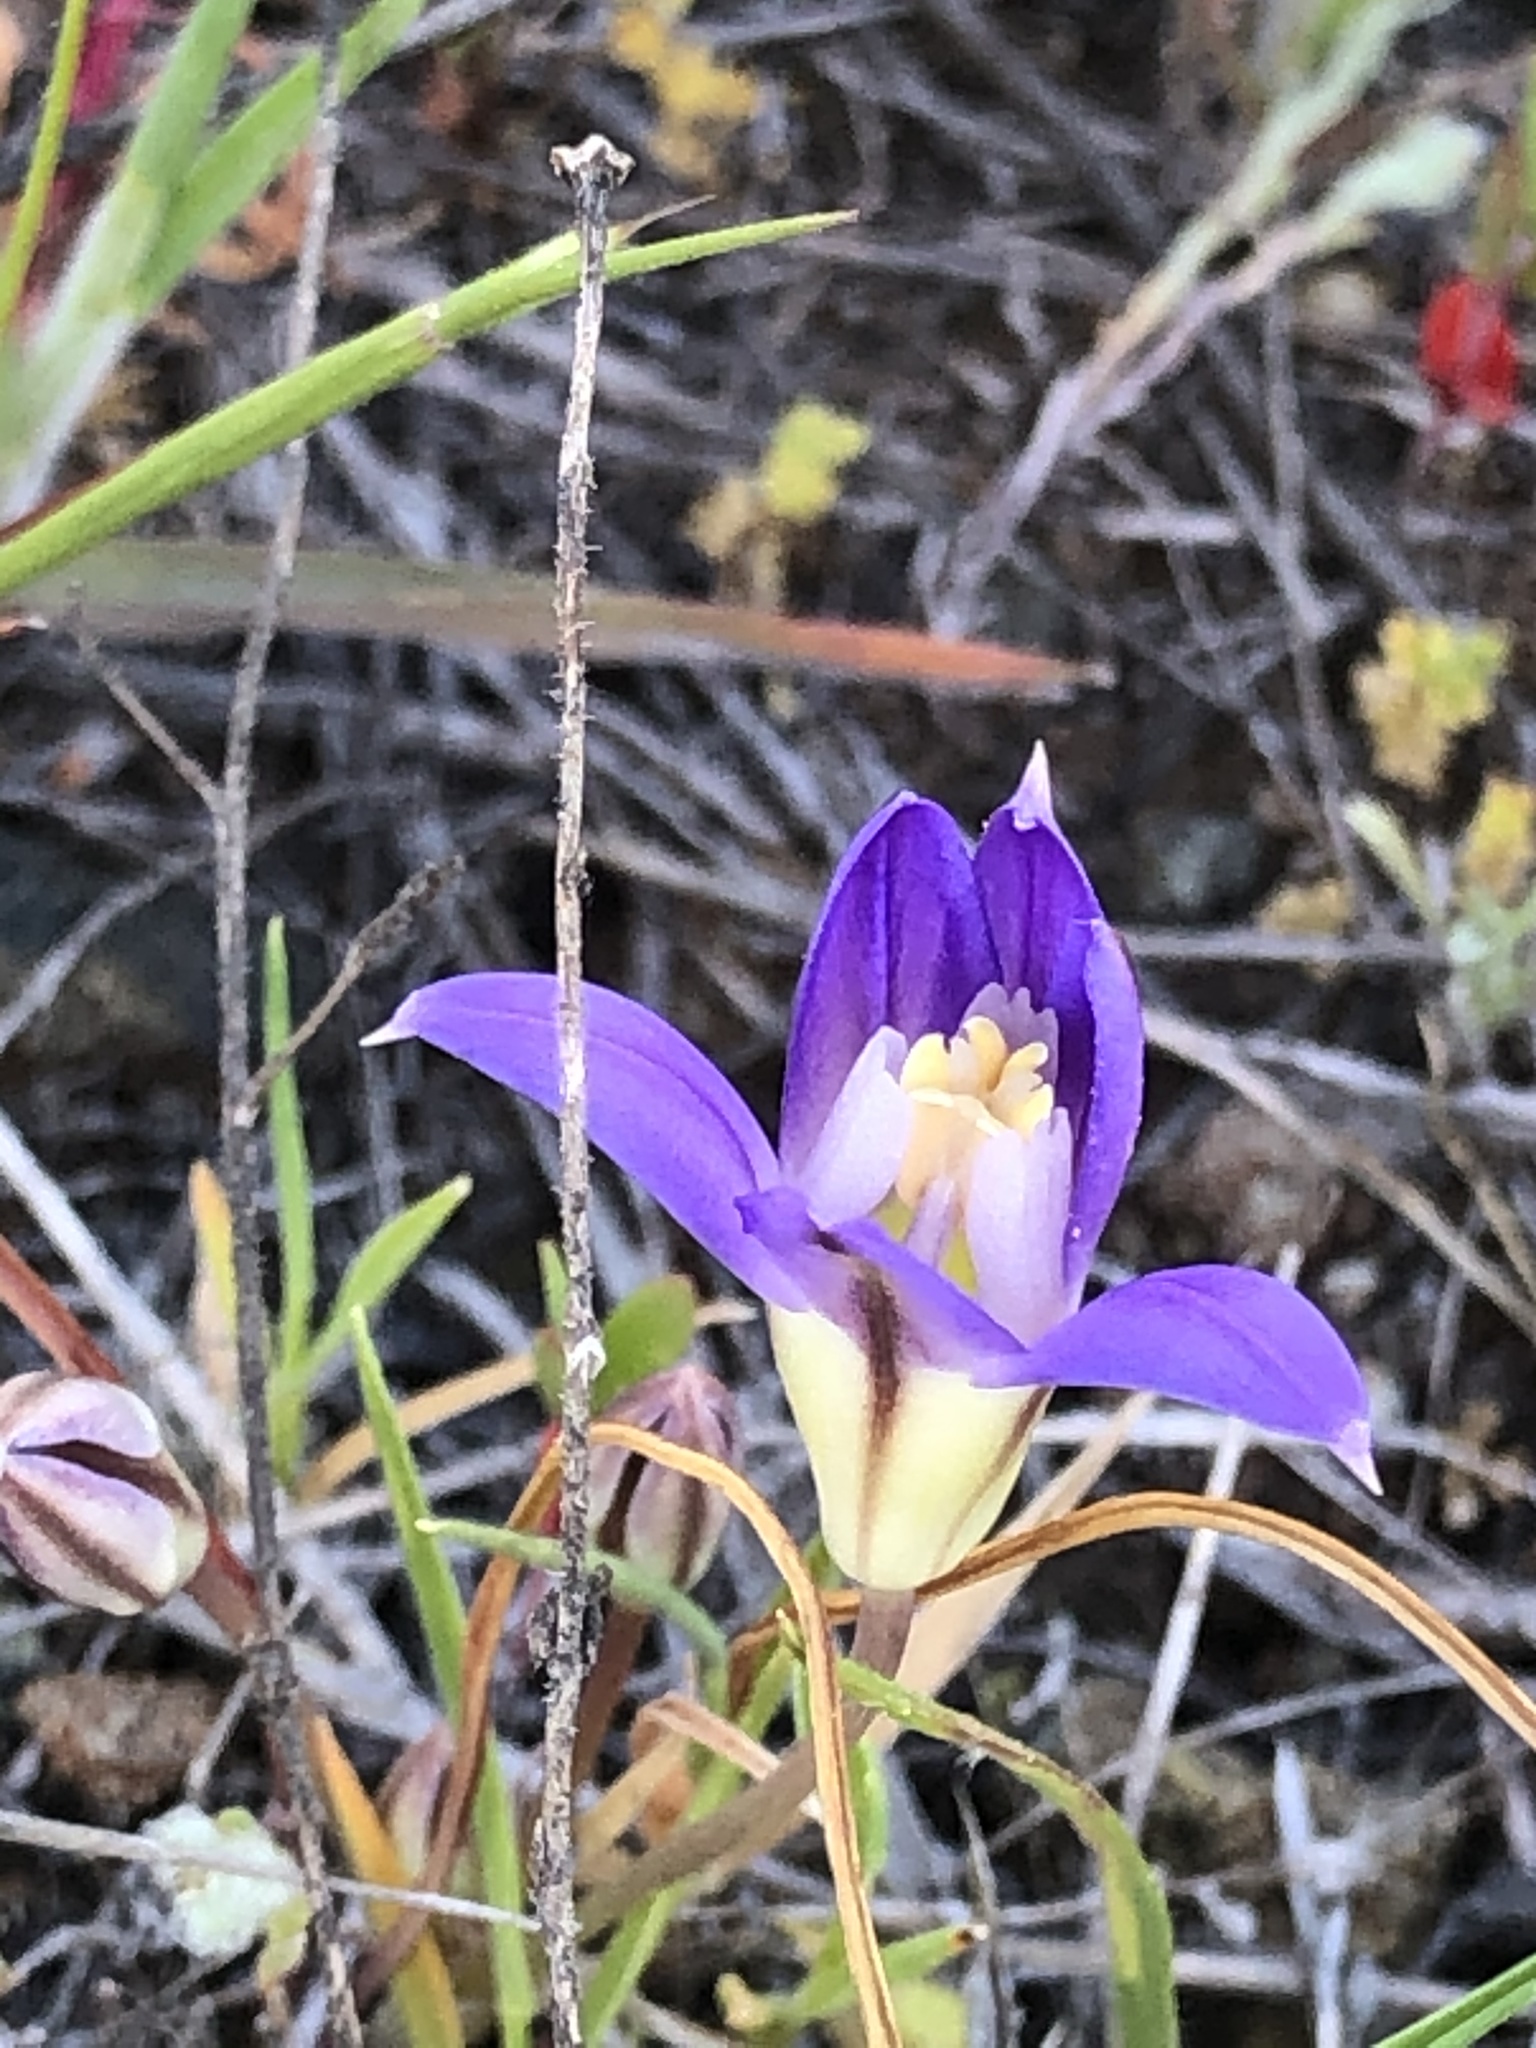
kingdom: Plantae
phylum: Tracheophyta
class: Liliopsida
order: Asparagales
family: Asparagaceae
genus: Brodiaea
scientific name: Brodiaea terrestris
